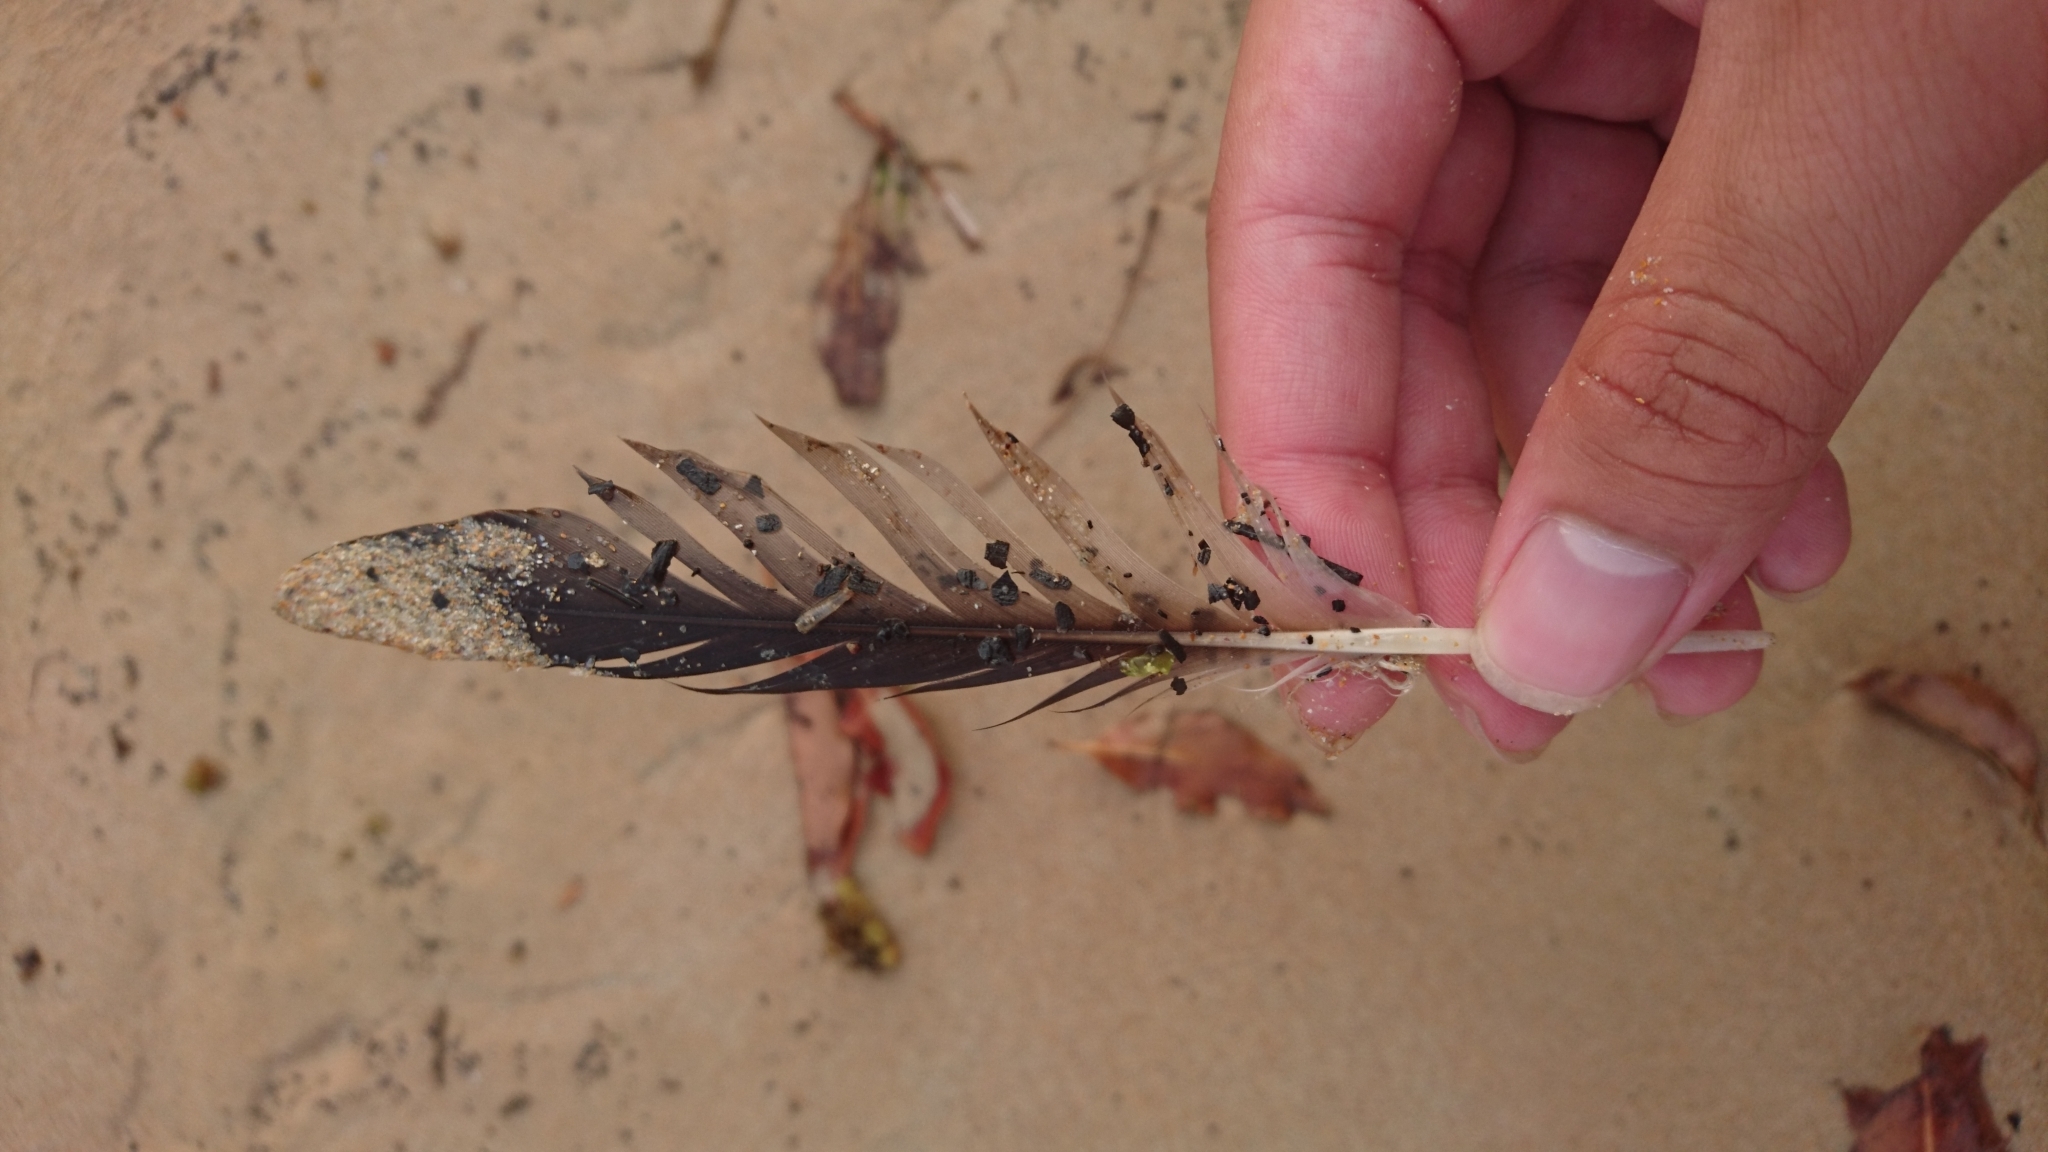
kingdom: Animalia
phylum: Chordata
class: Aves
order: Procellariiformes
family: Procellariidae
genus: Puffinus
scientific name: Puffinus gavia
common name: Fluttering shearwater
